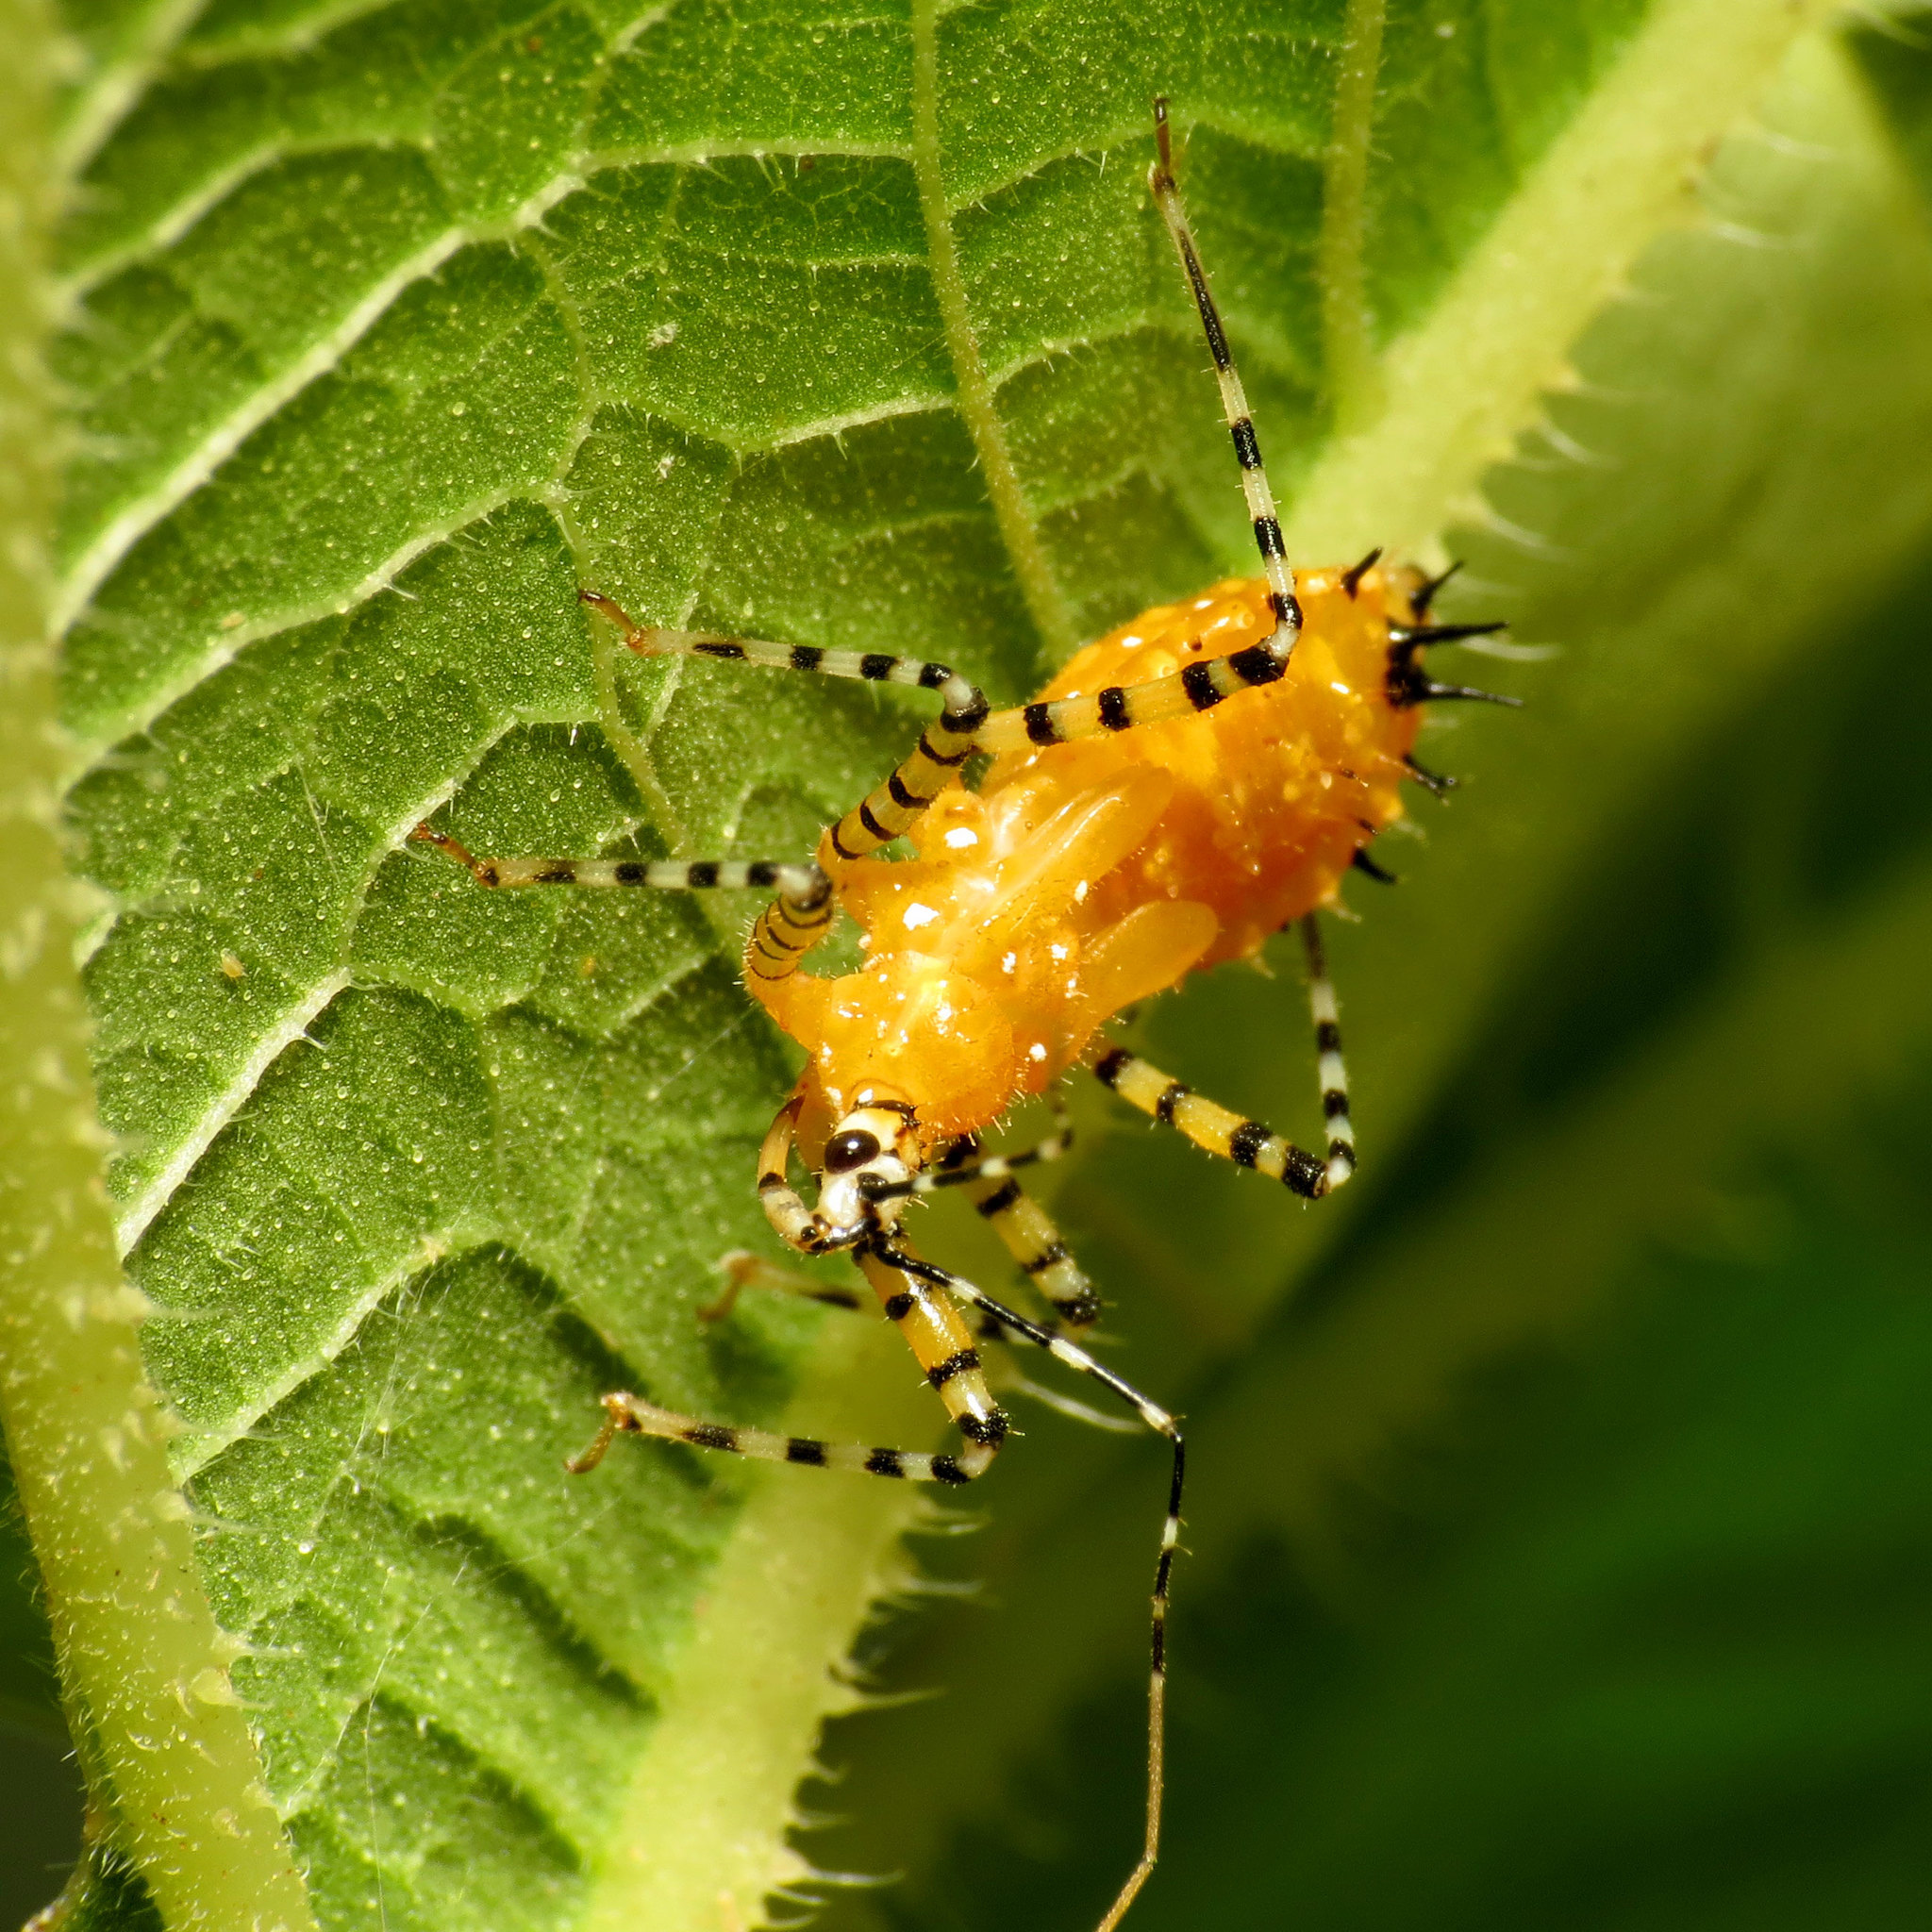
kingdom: Animalia
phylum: Arthropoda
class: Insecta
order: Hemiptera
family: Reduviidae
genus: Pselliopus
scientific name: Pselliopus barberi
